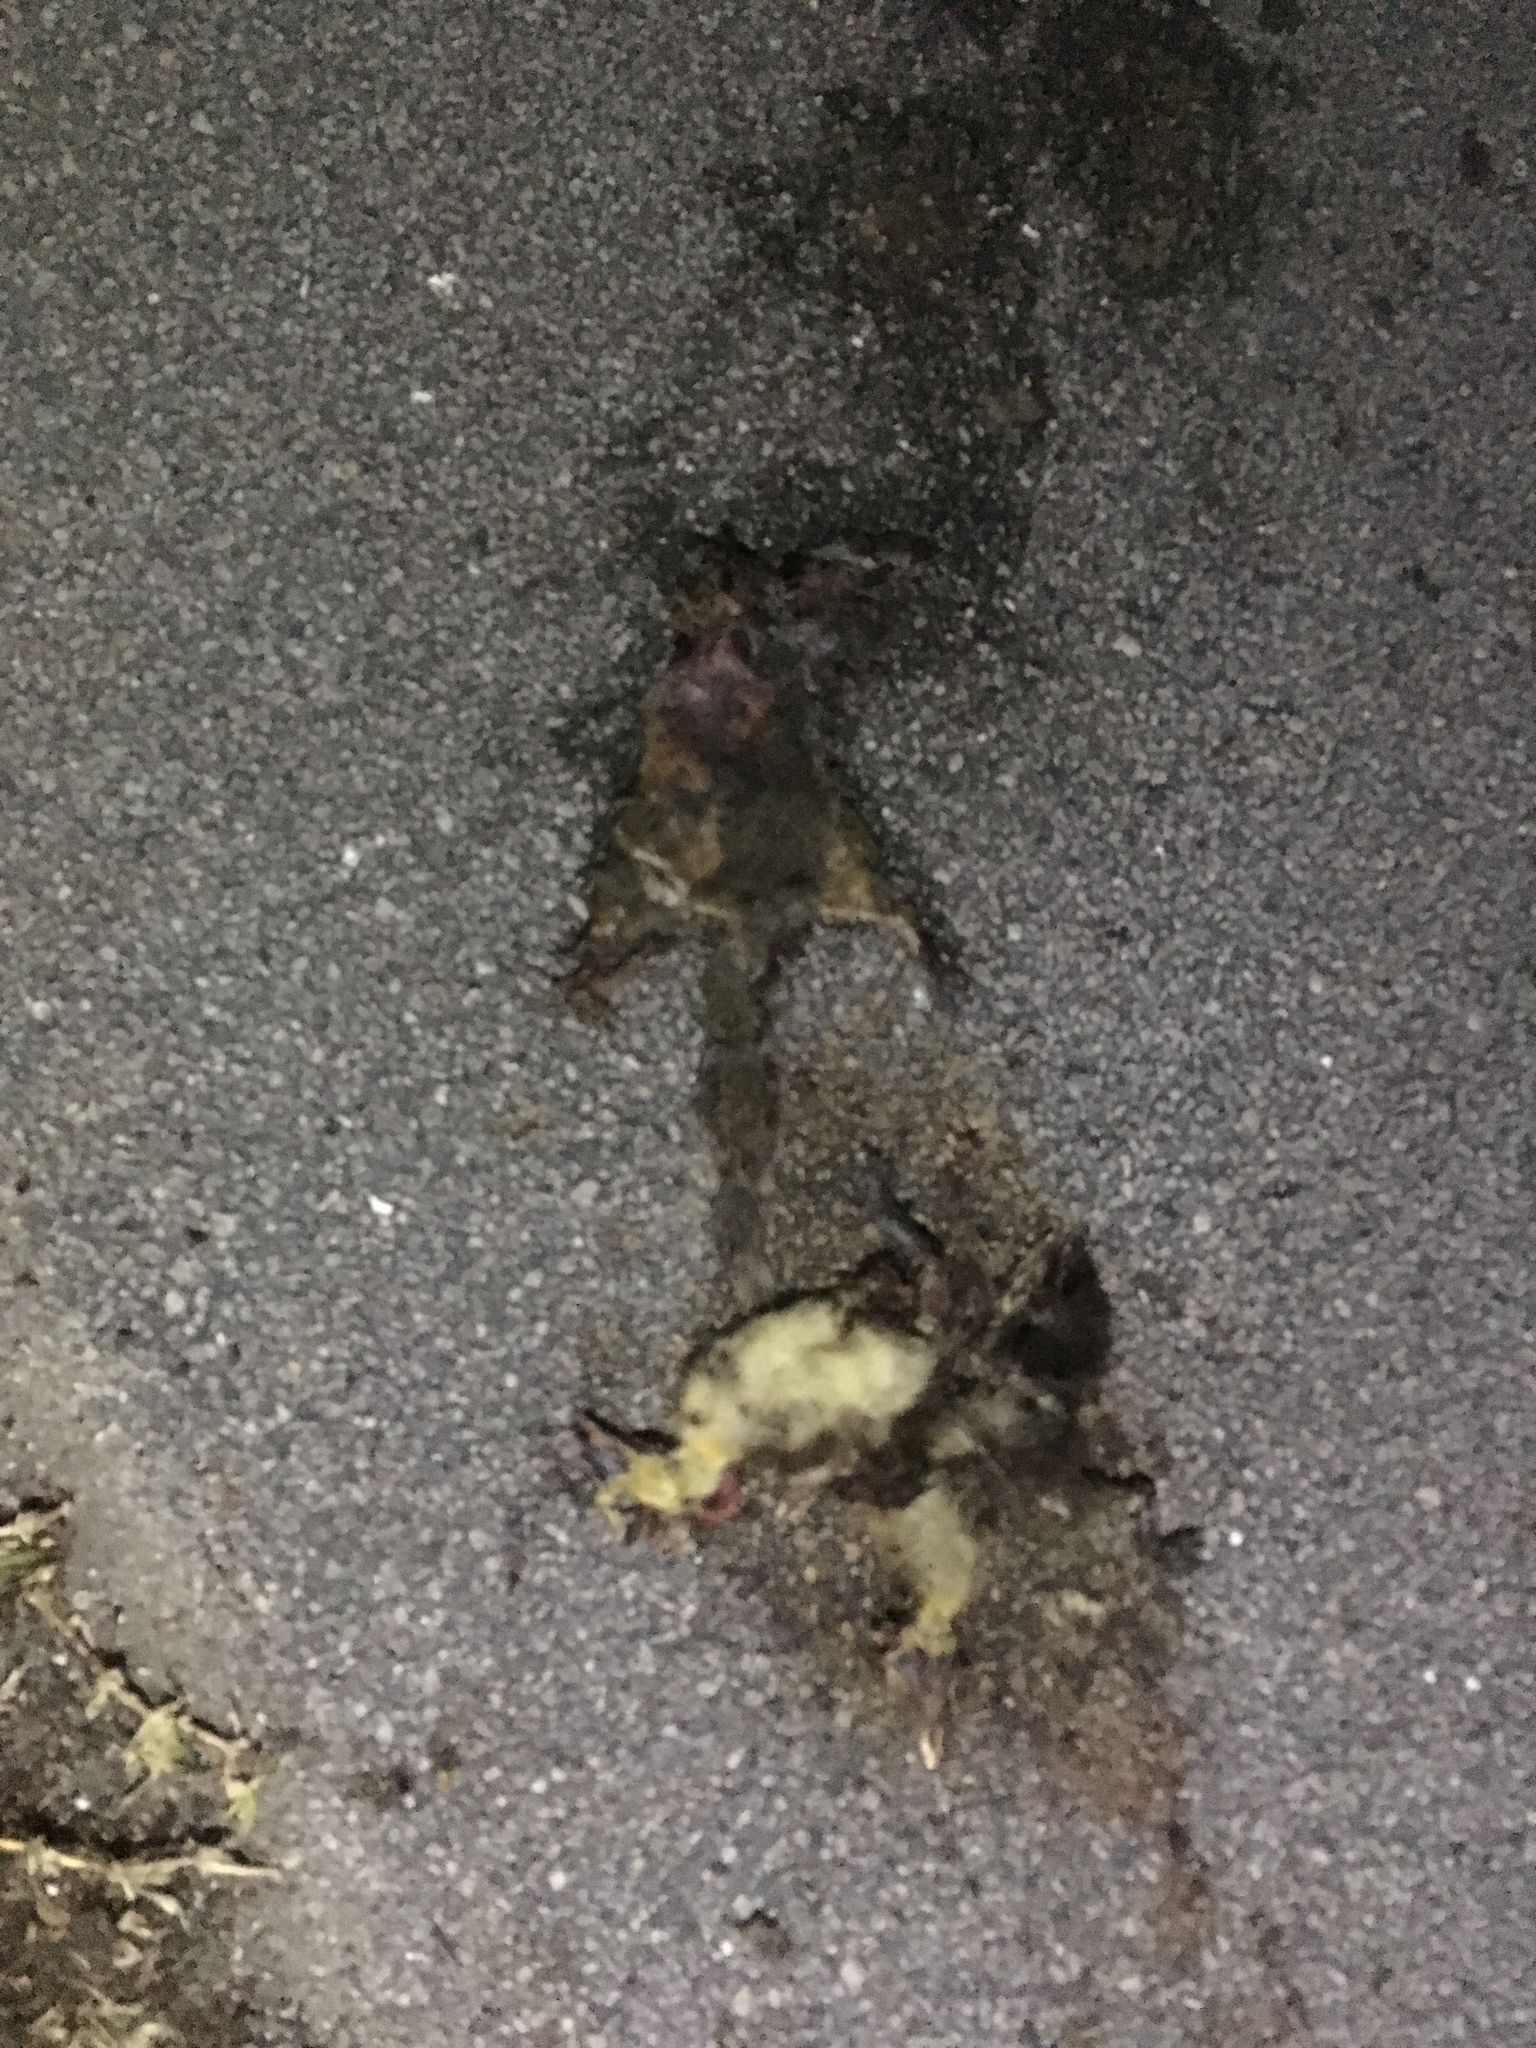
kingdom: Animalia
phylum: Chordata
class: Aves
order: Anseriformes
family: Anatidae
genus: Cairina
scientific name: Cairina moschata
